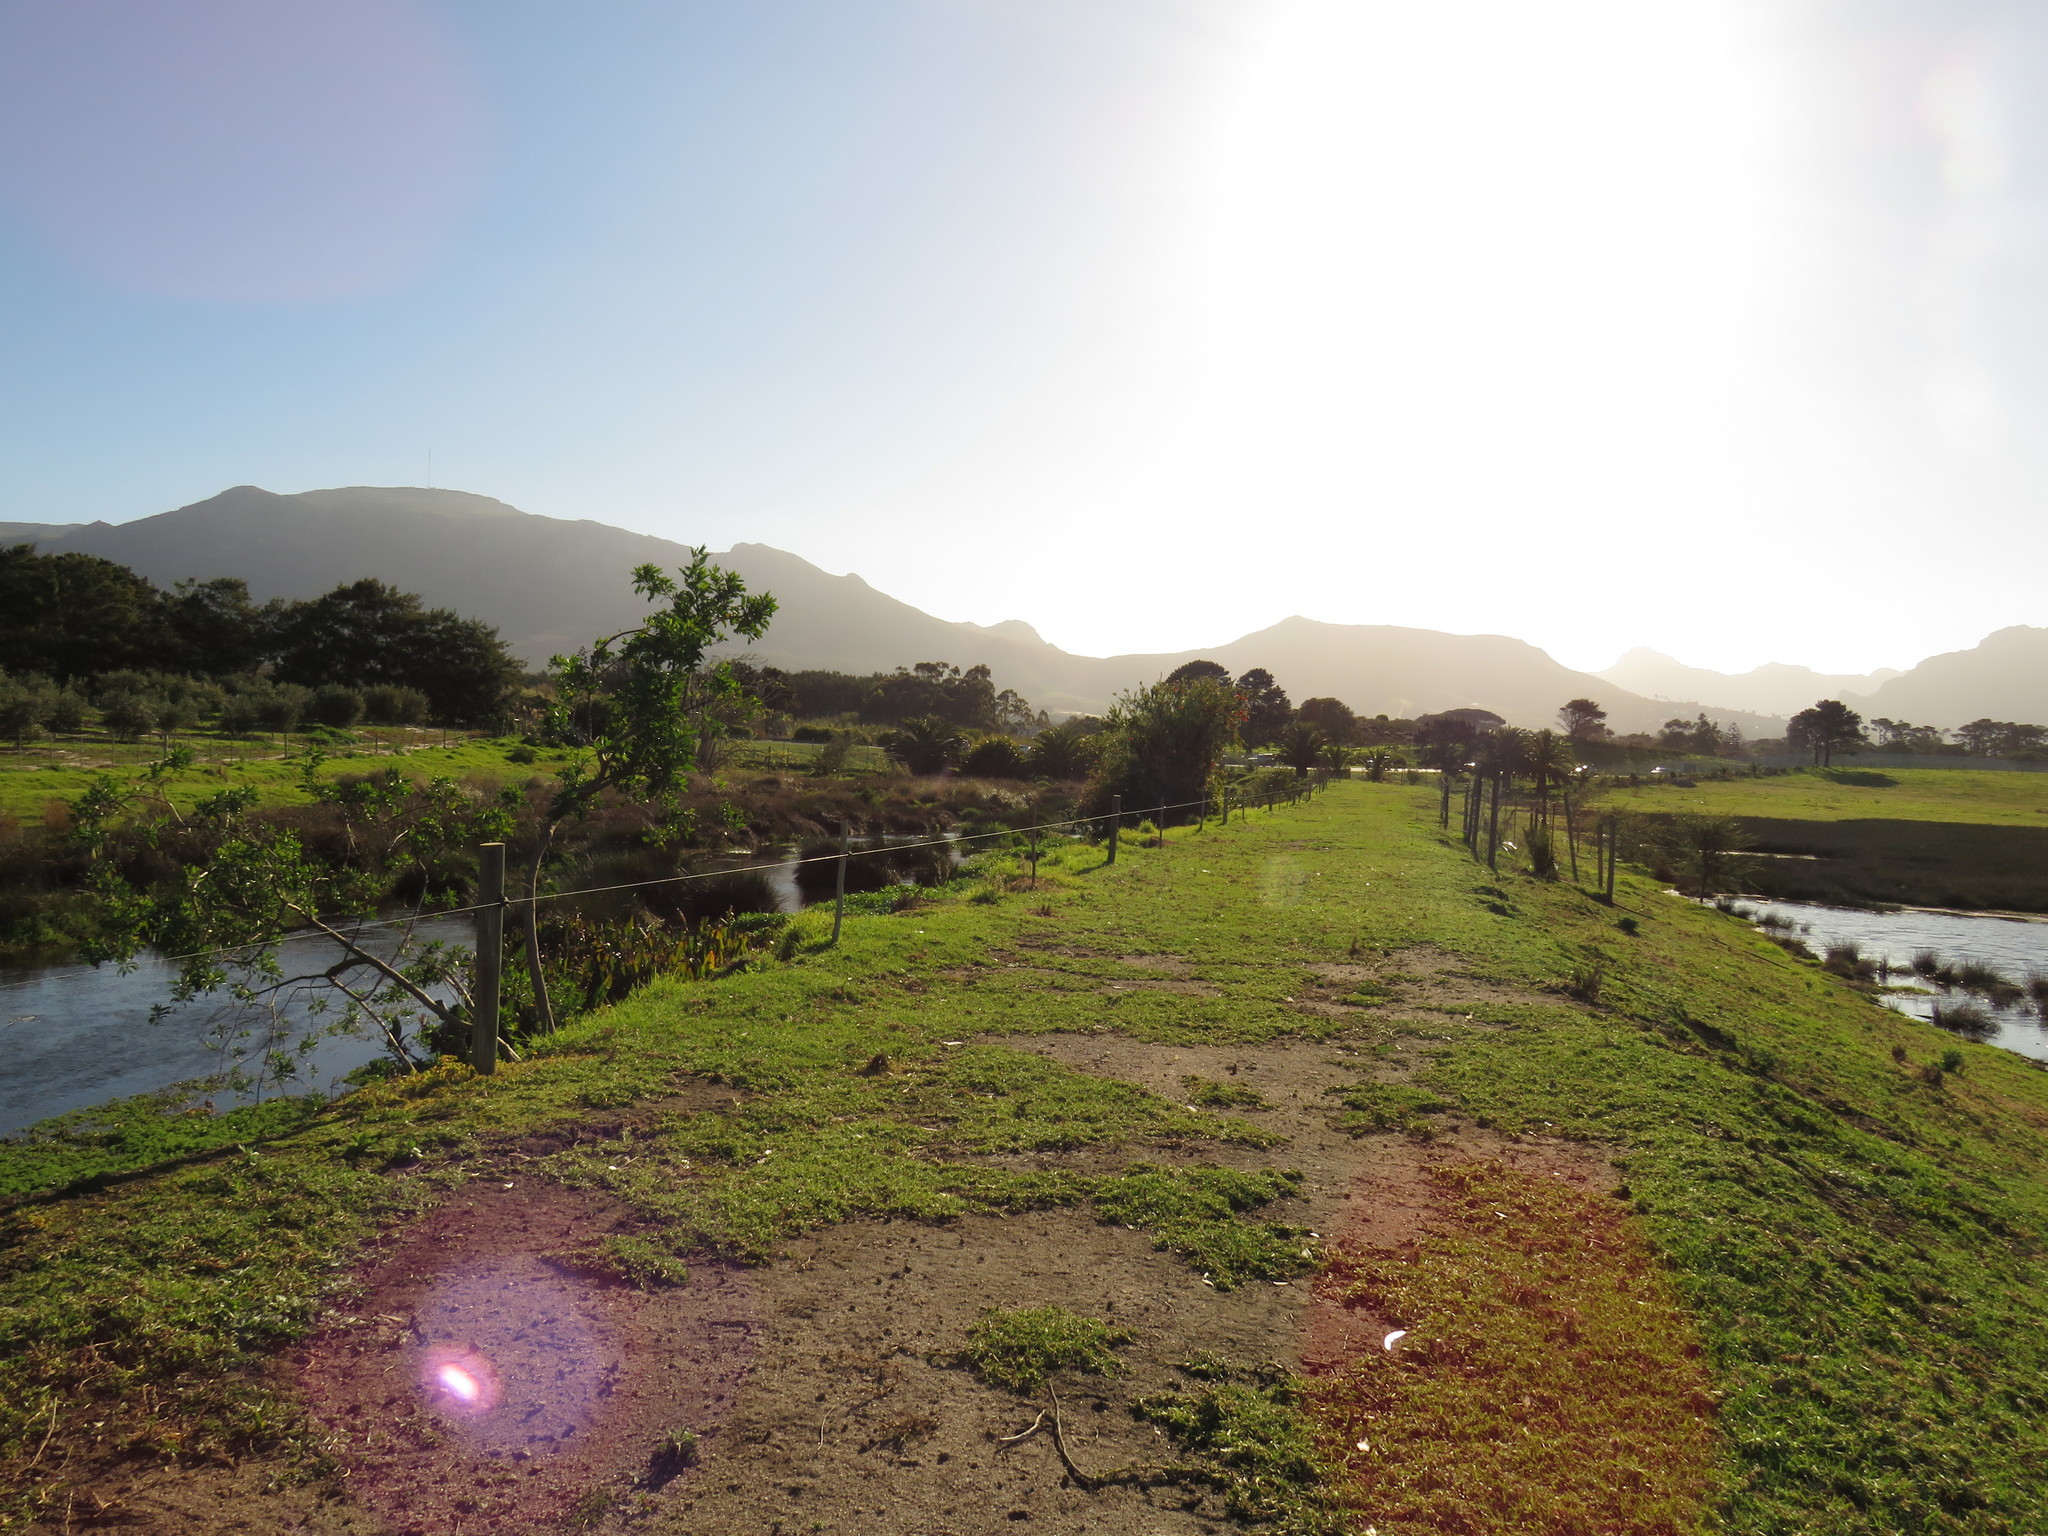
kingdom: Plantae
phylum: Tracheophyta
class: Magnoliopsida
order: Solanales
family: Solanaceae
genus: Nicotiana
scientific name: Nicotiana glauca
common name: Tree tobacco
